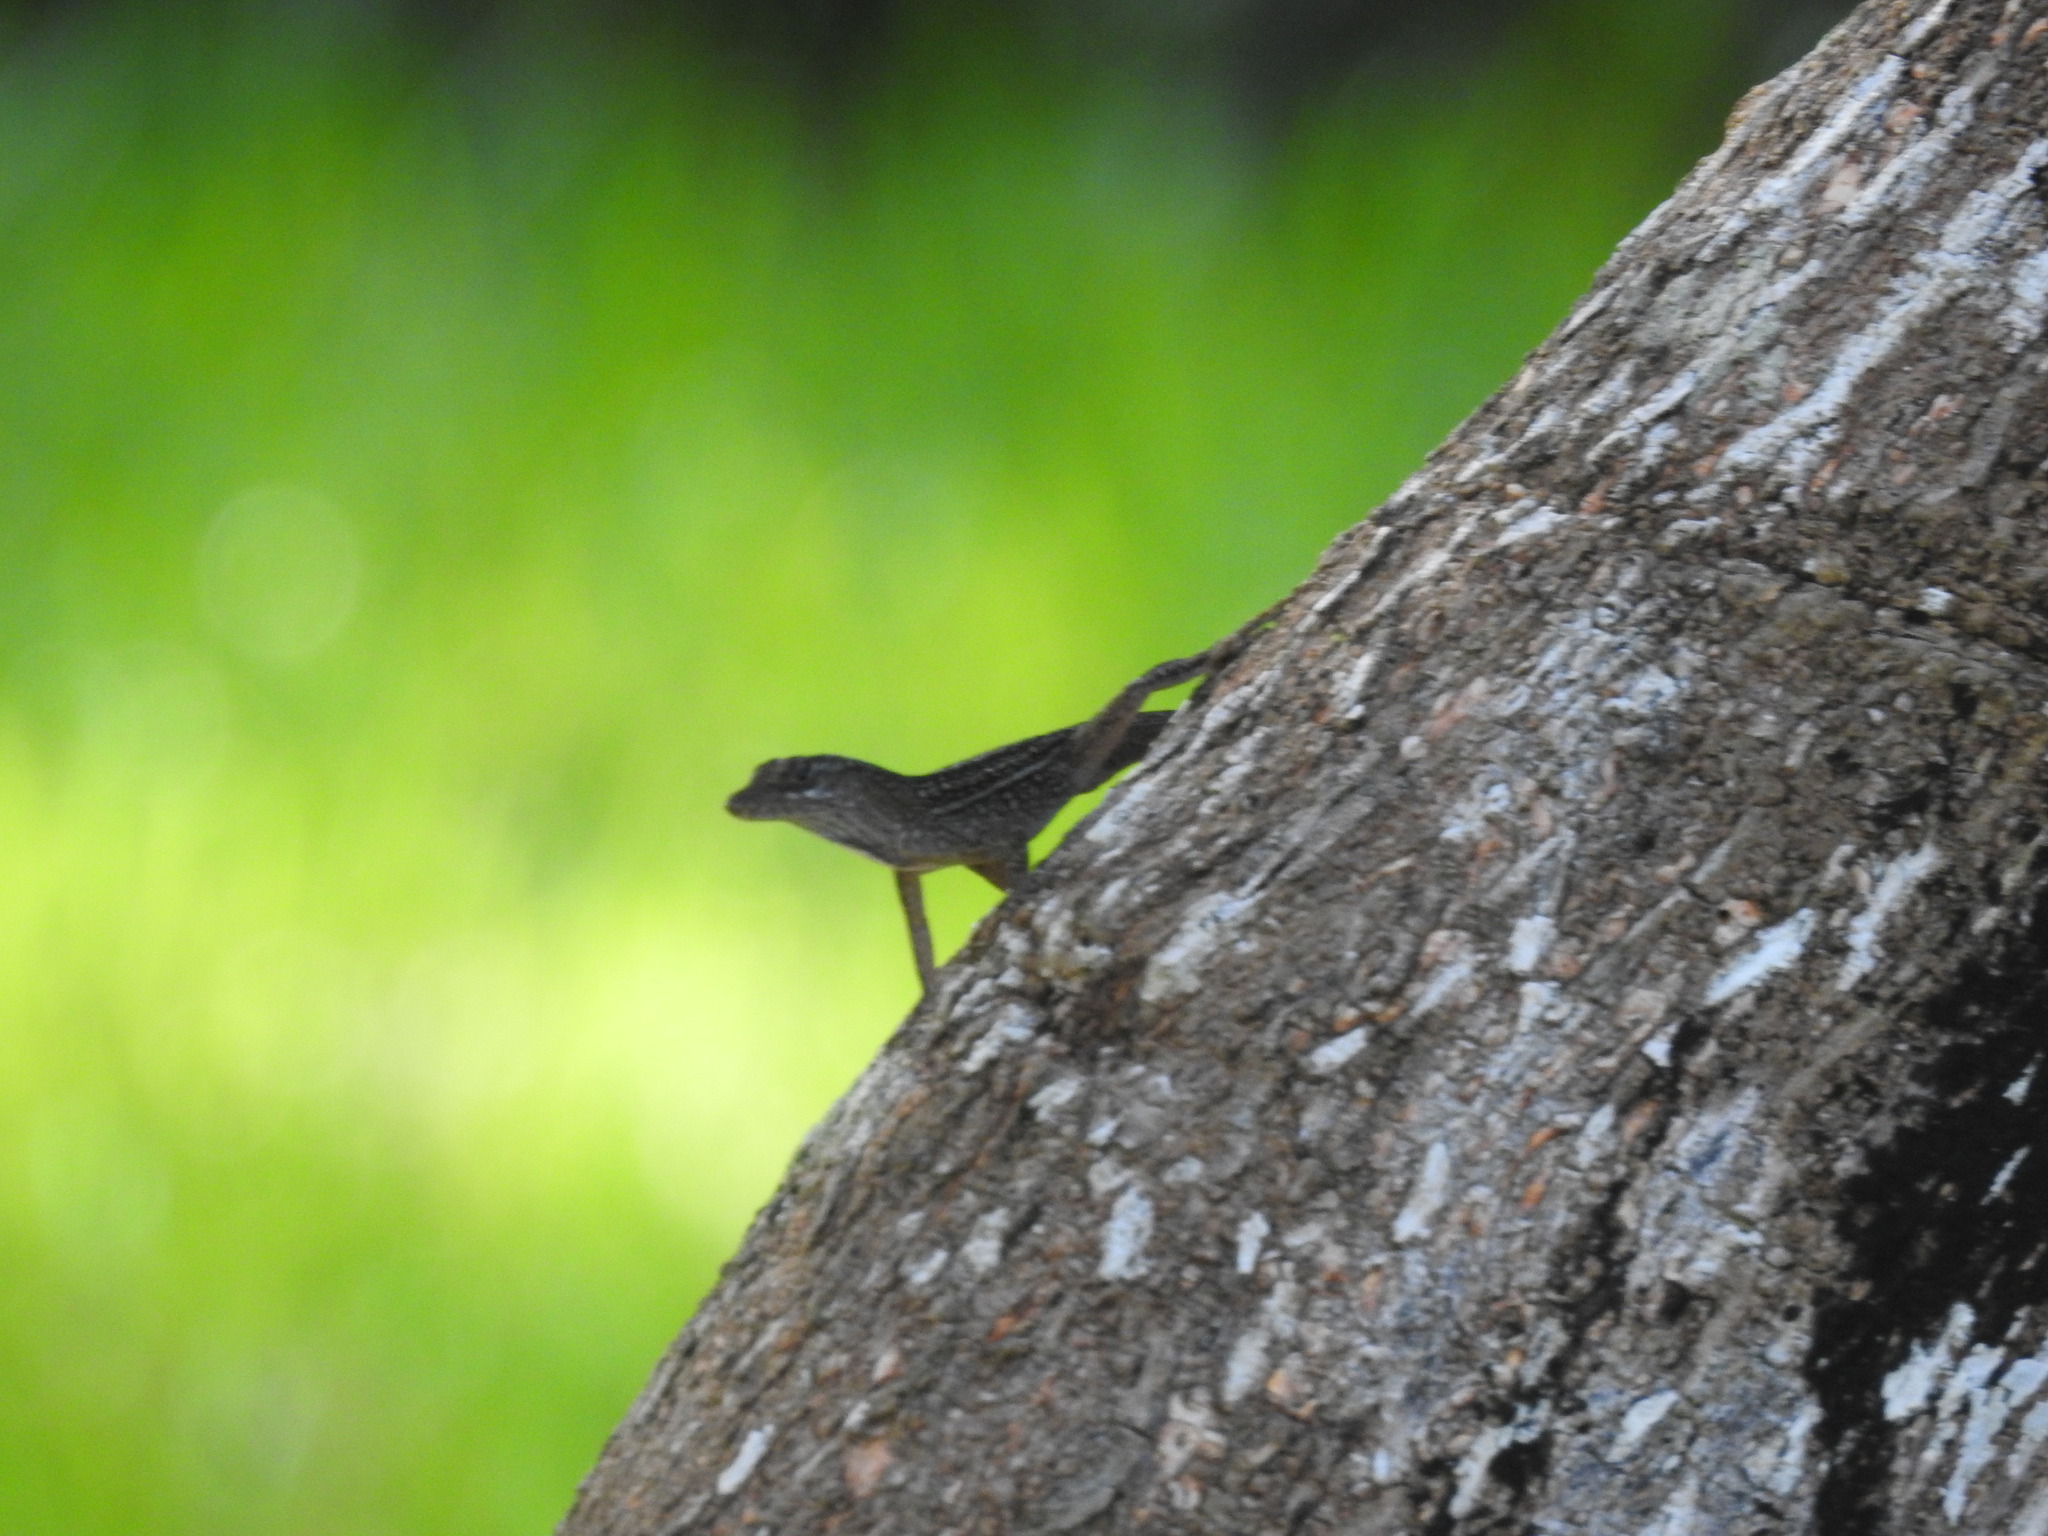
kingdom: Animalia
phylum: Chordata
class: Squamata
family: Dactyloidae
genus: Anolis
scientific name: Anolis sagrei
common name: Brown anole
